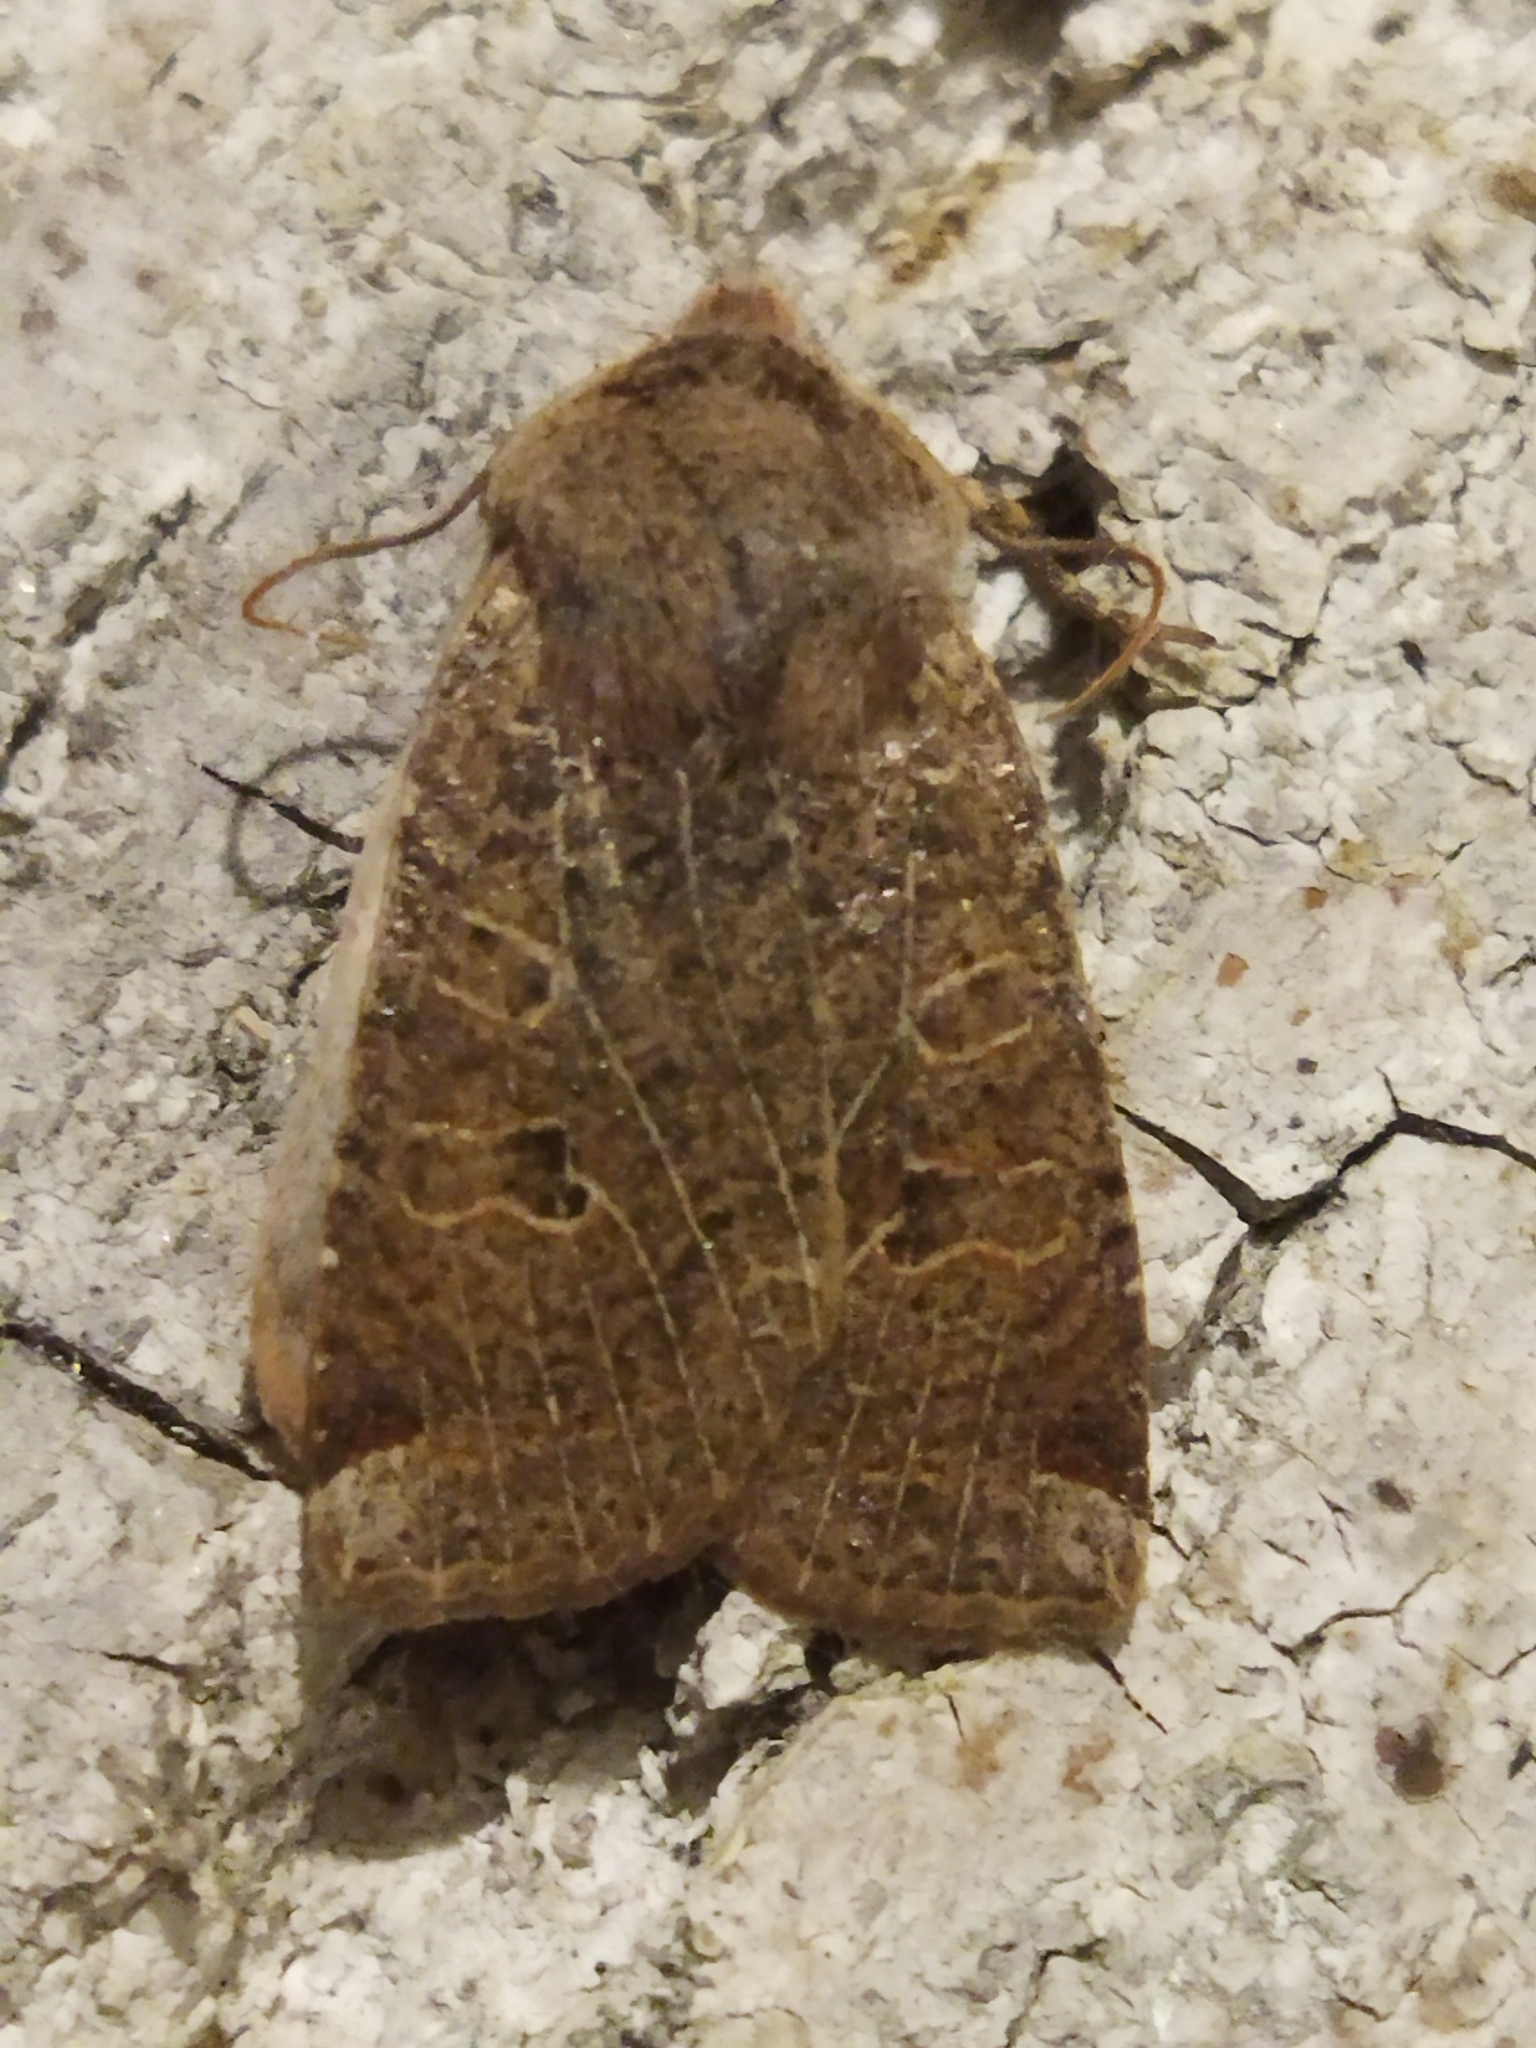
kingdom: Animalia
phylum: Arthropoda
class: Insecta
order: Lepidoptera
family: Noctuidae
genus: Conistra
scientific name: Conistra veronicae
